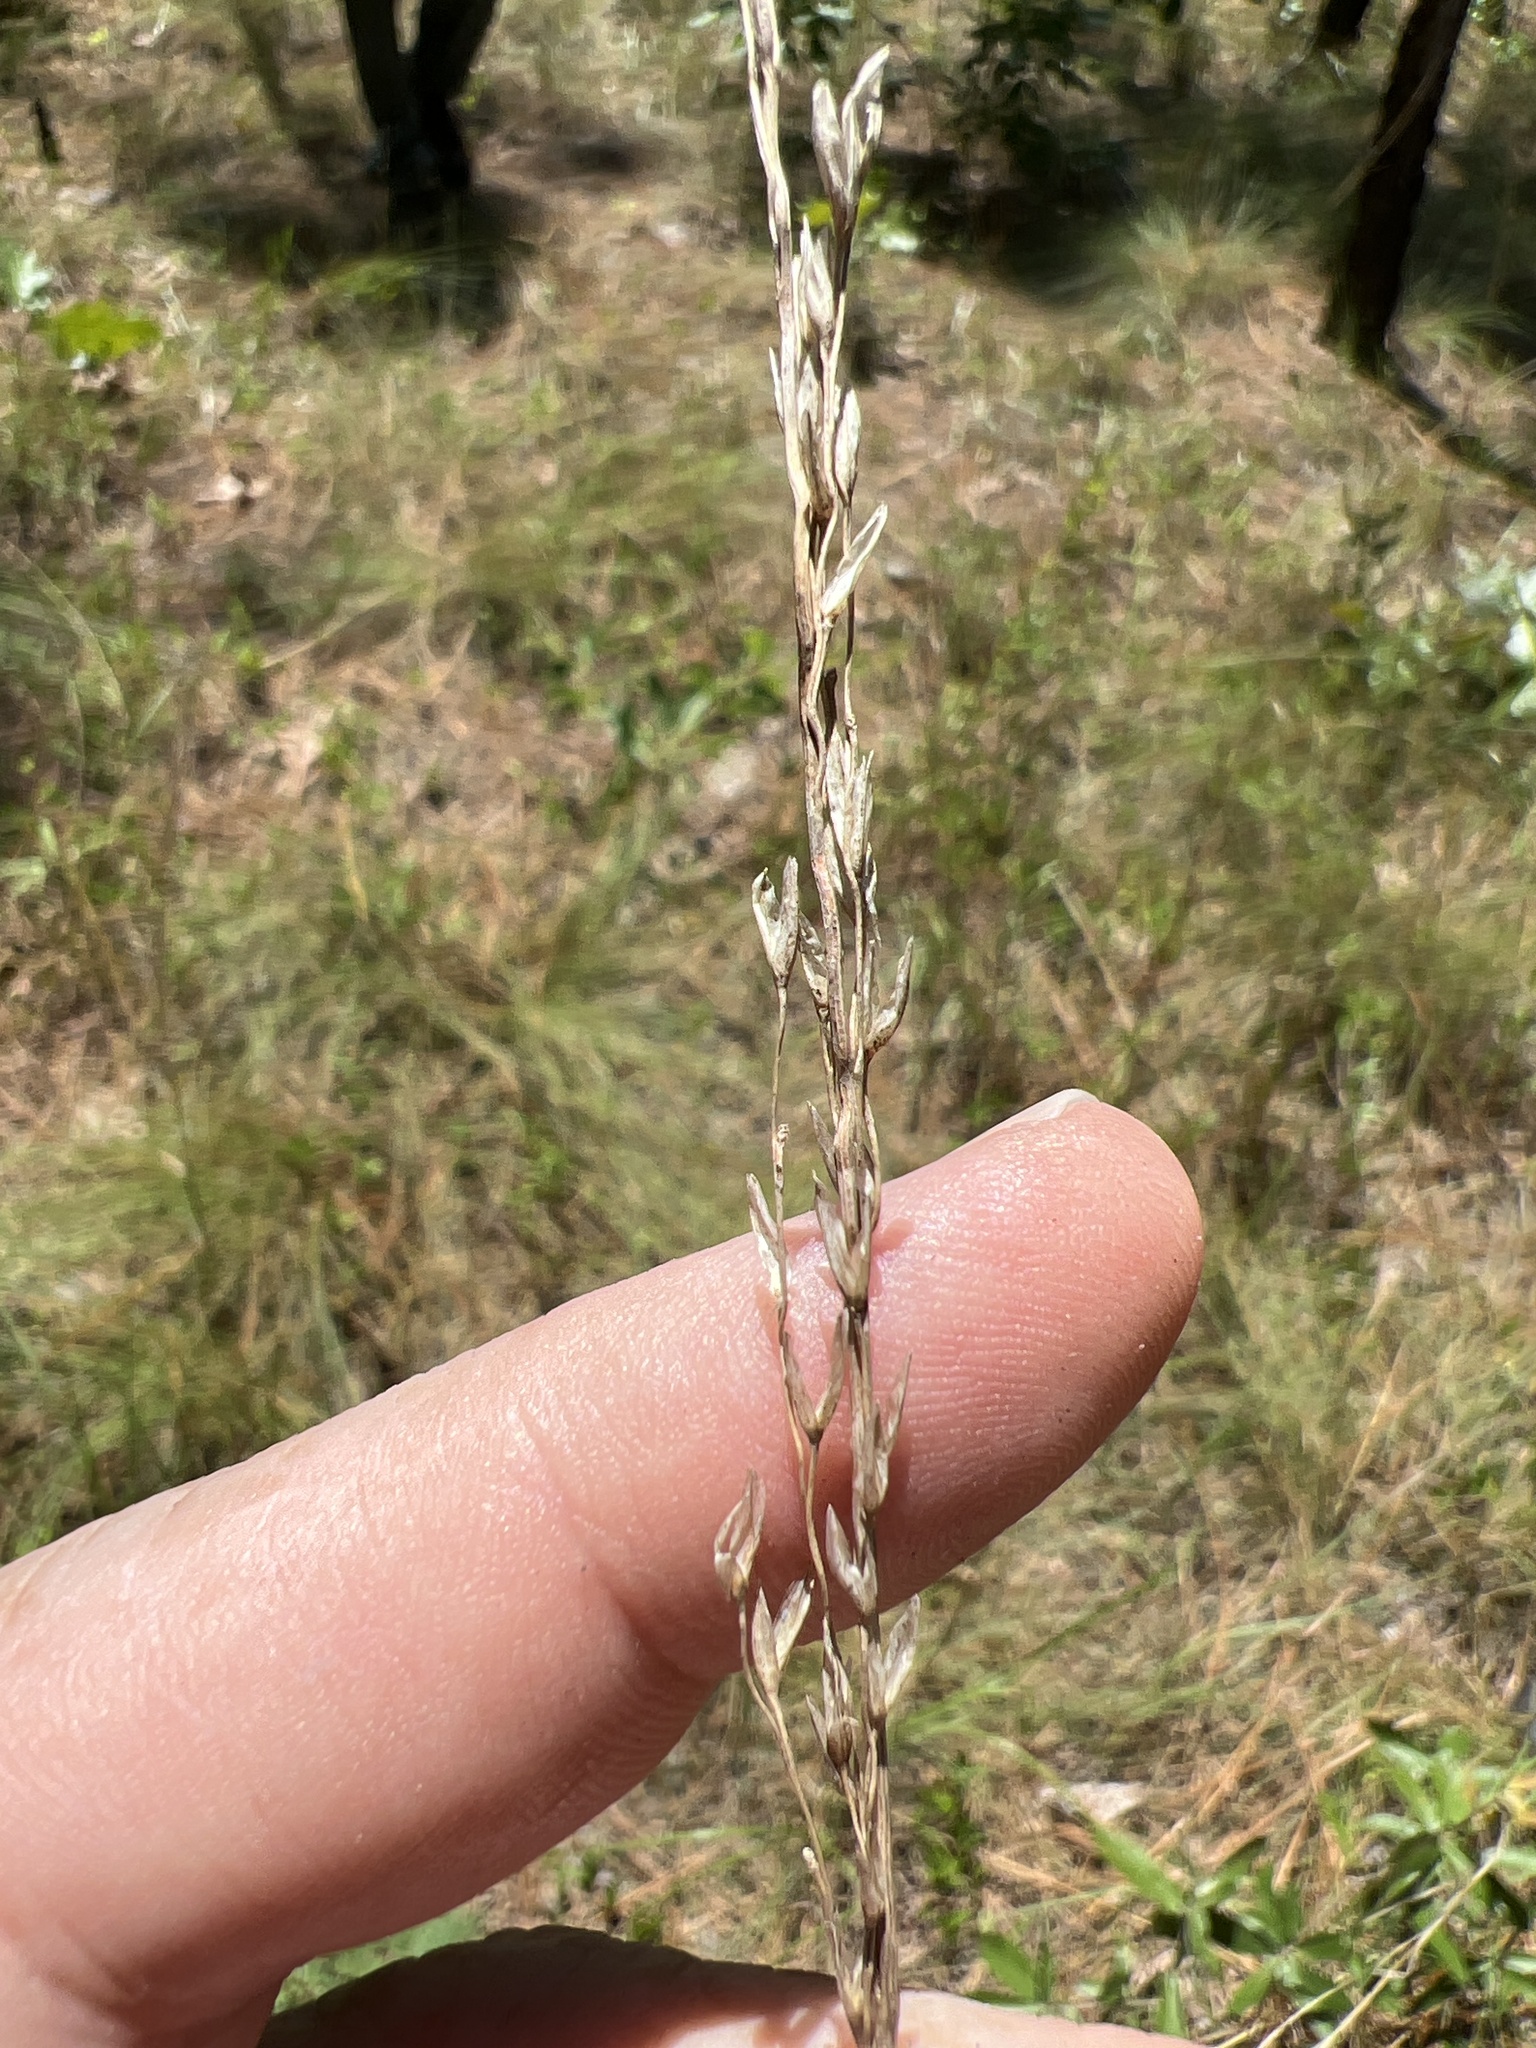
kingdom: Plantae
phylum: Tracheophyta
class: Liliopsida
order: Poales
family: Poaceae
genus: Tridens
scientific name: Tridens carolinianus
